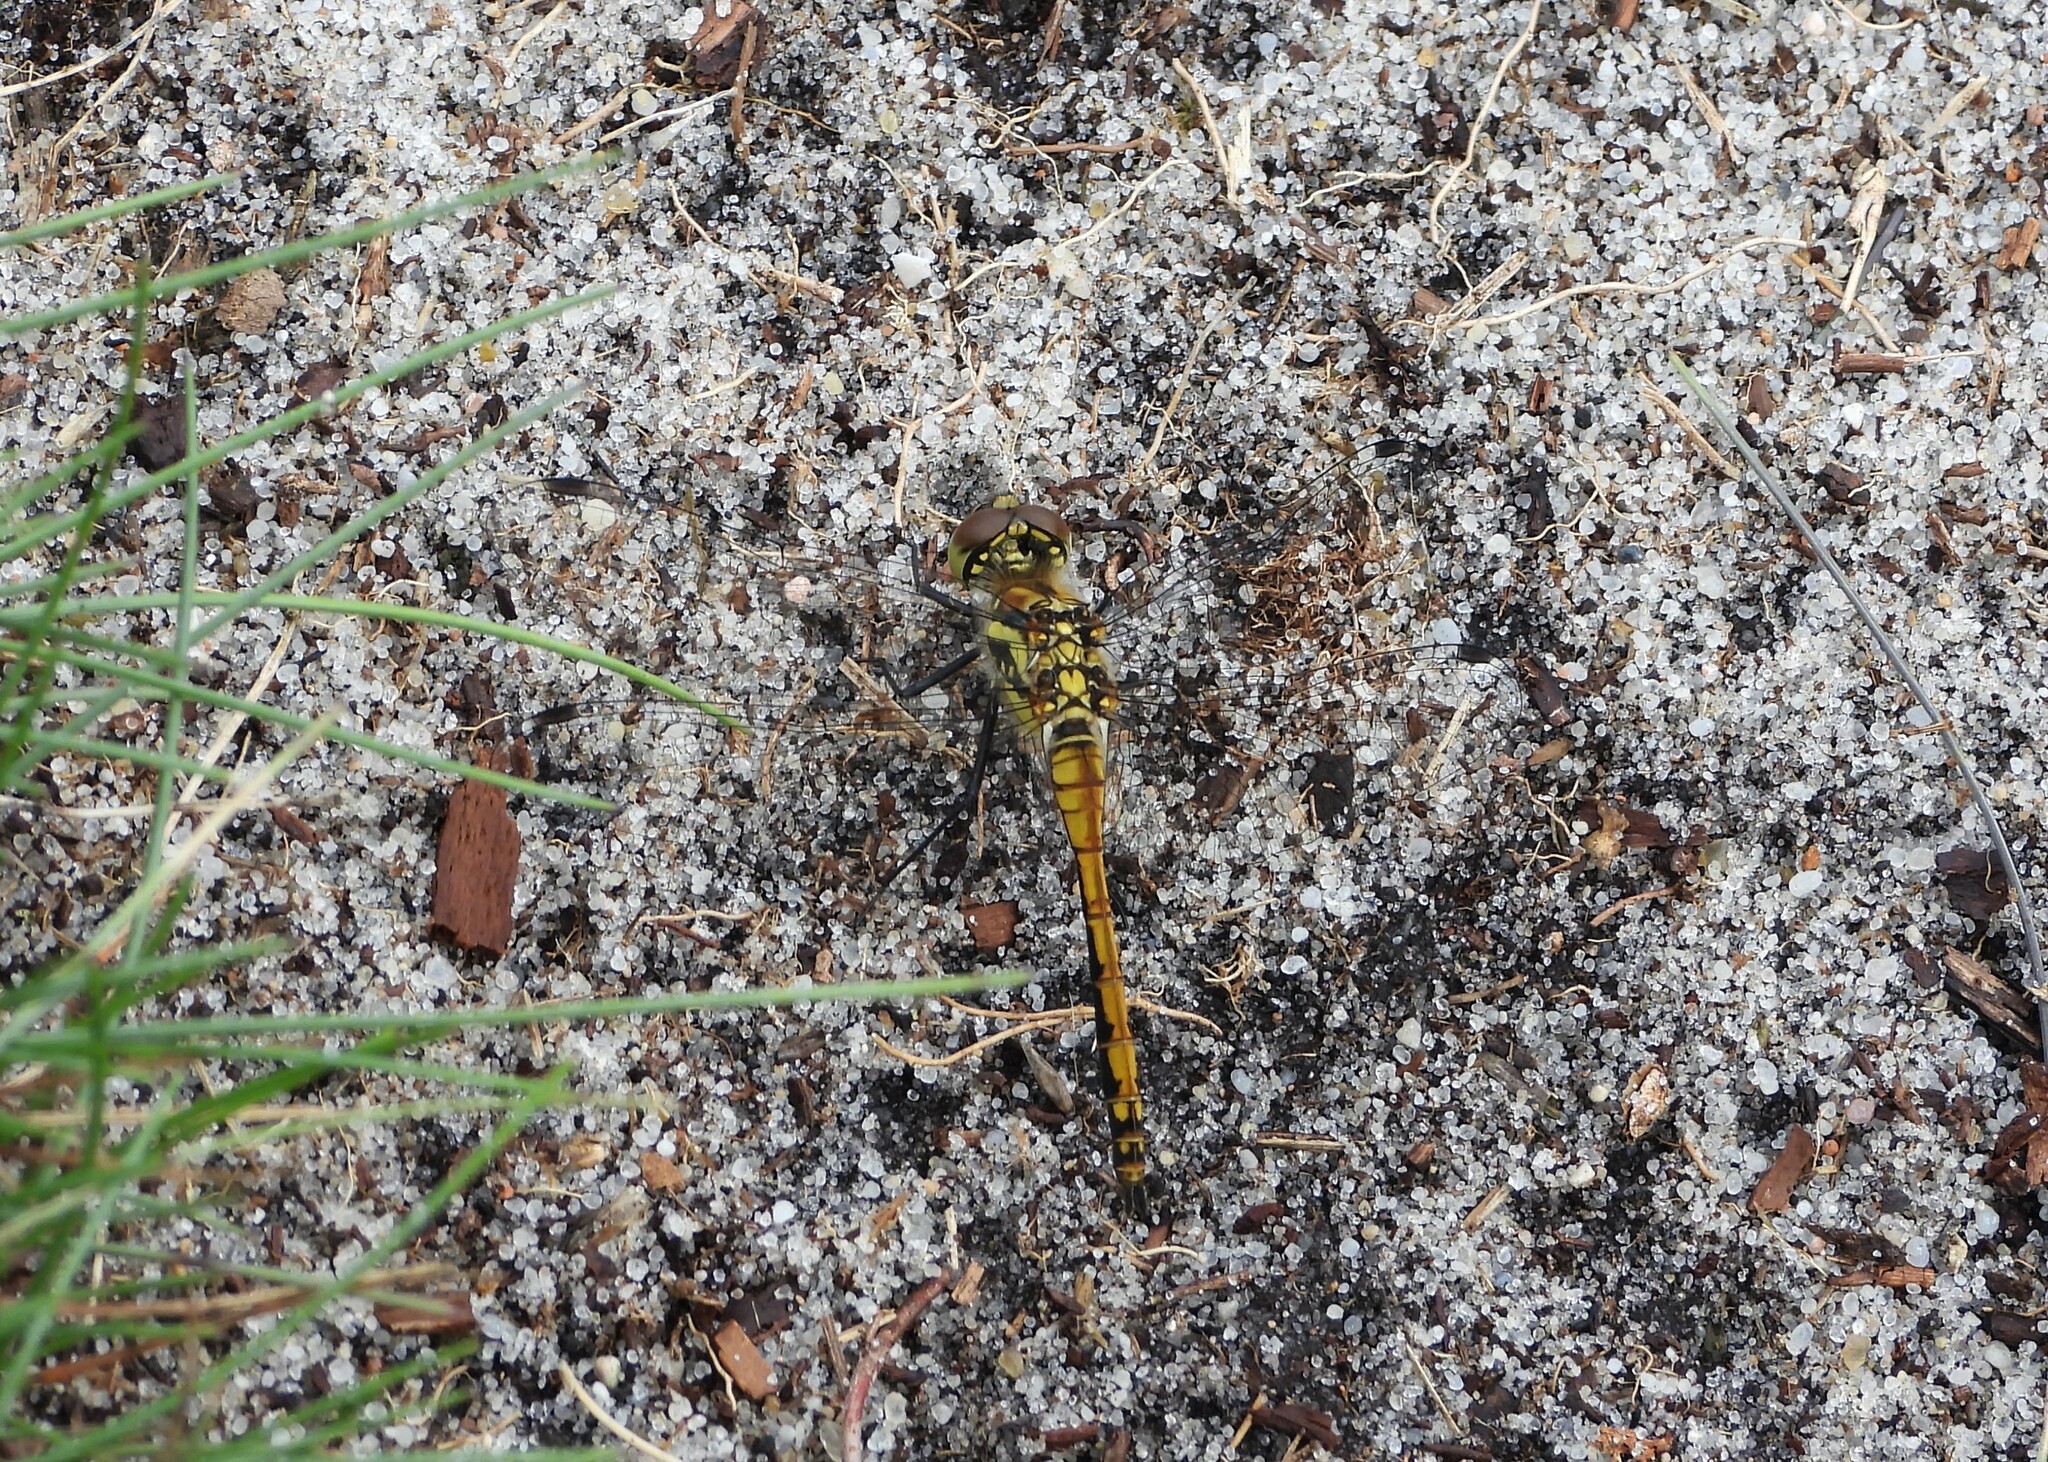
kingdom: Animalia
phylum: Arthropoda
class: Insecta
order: Odonata
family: Libellulidae
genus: Sympetrum
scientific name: Sympetrum danae
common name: Black darter
